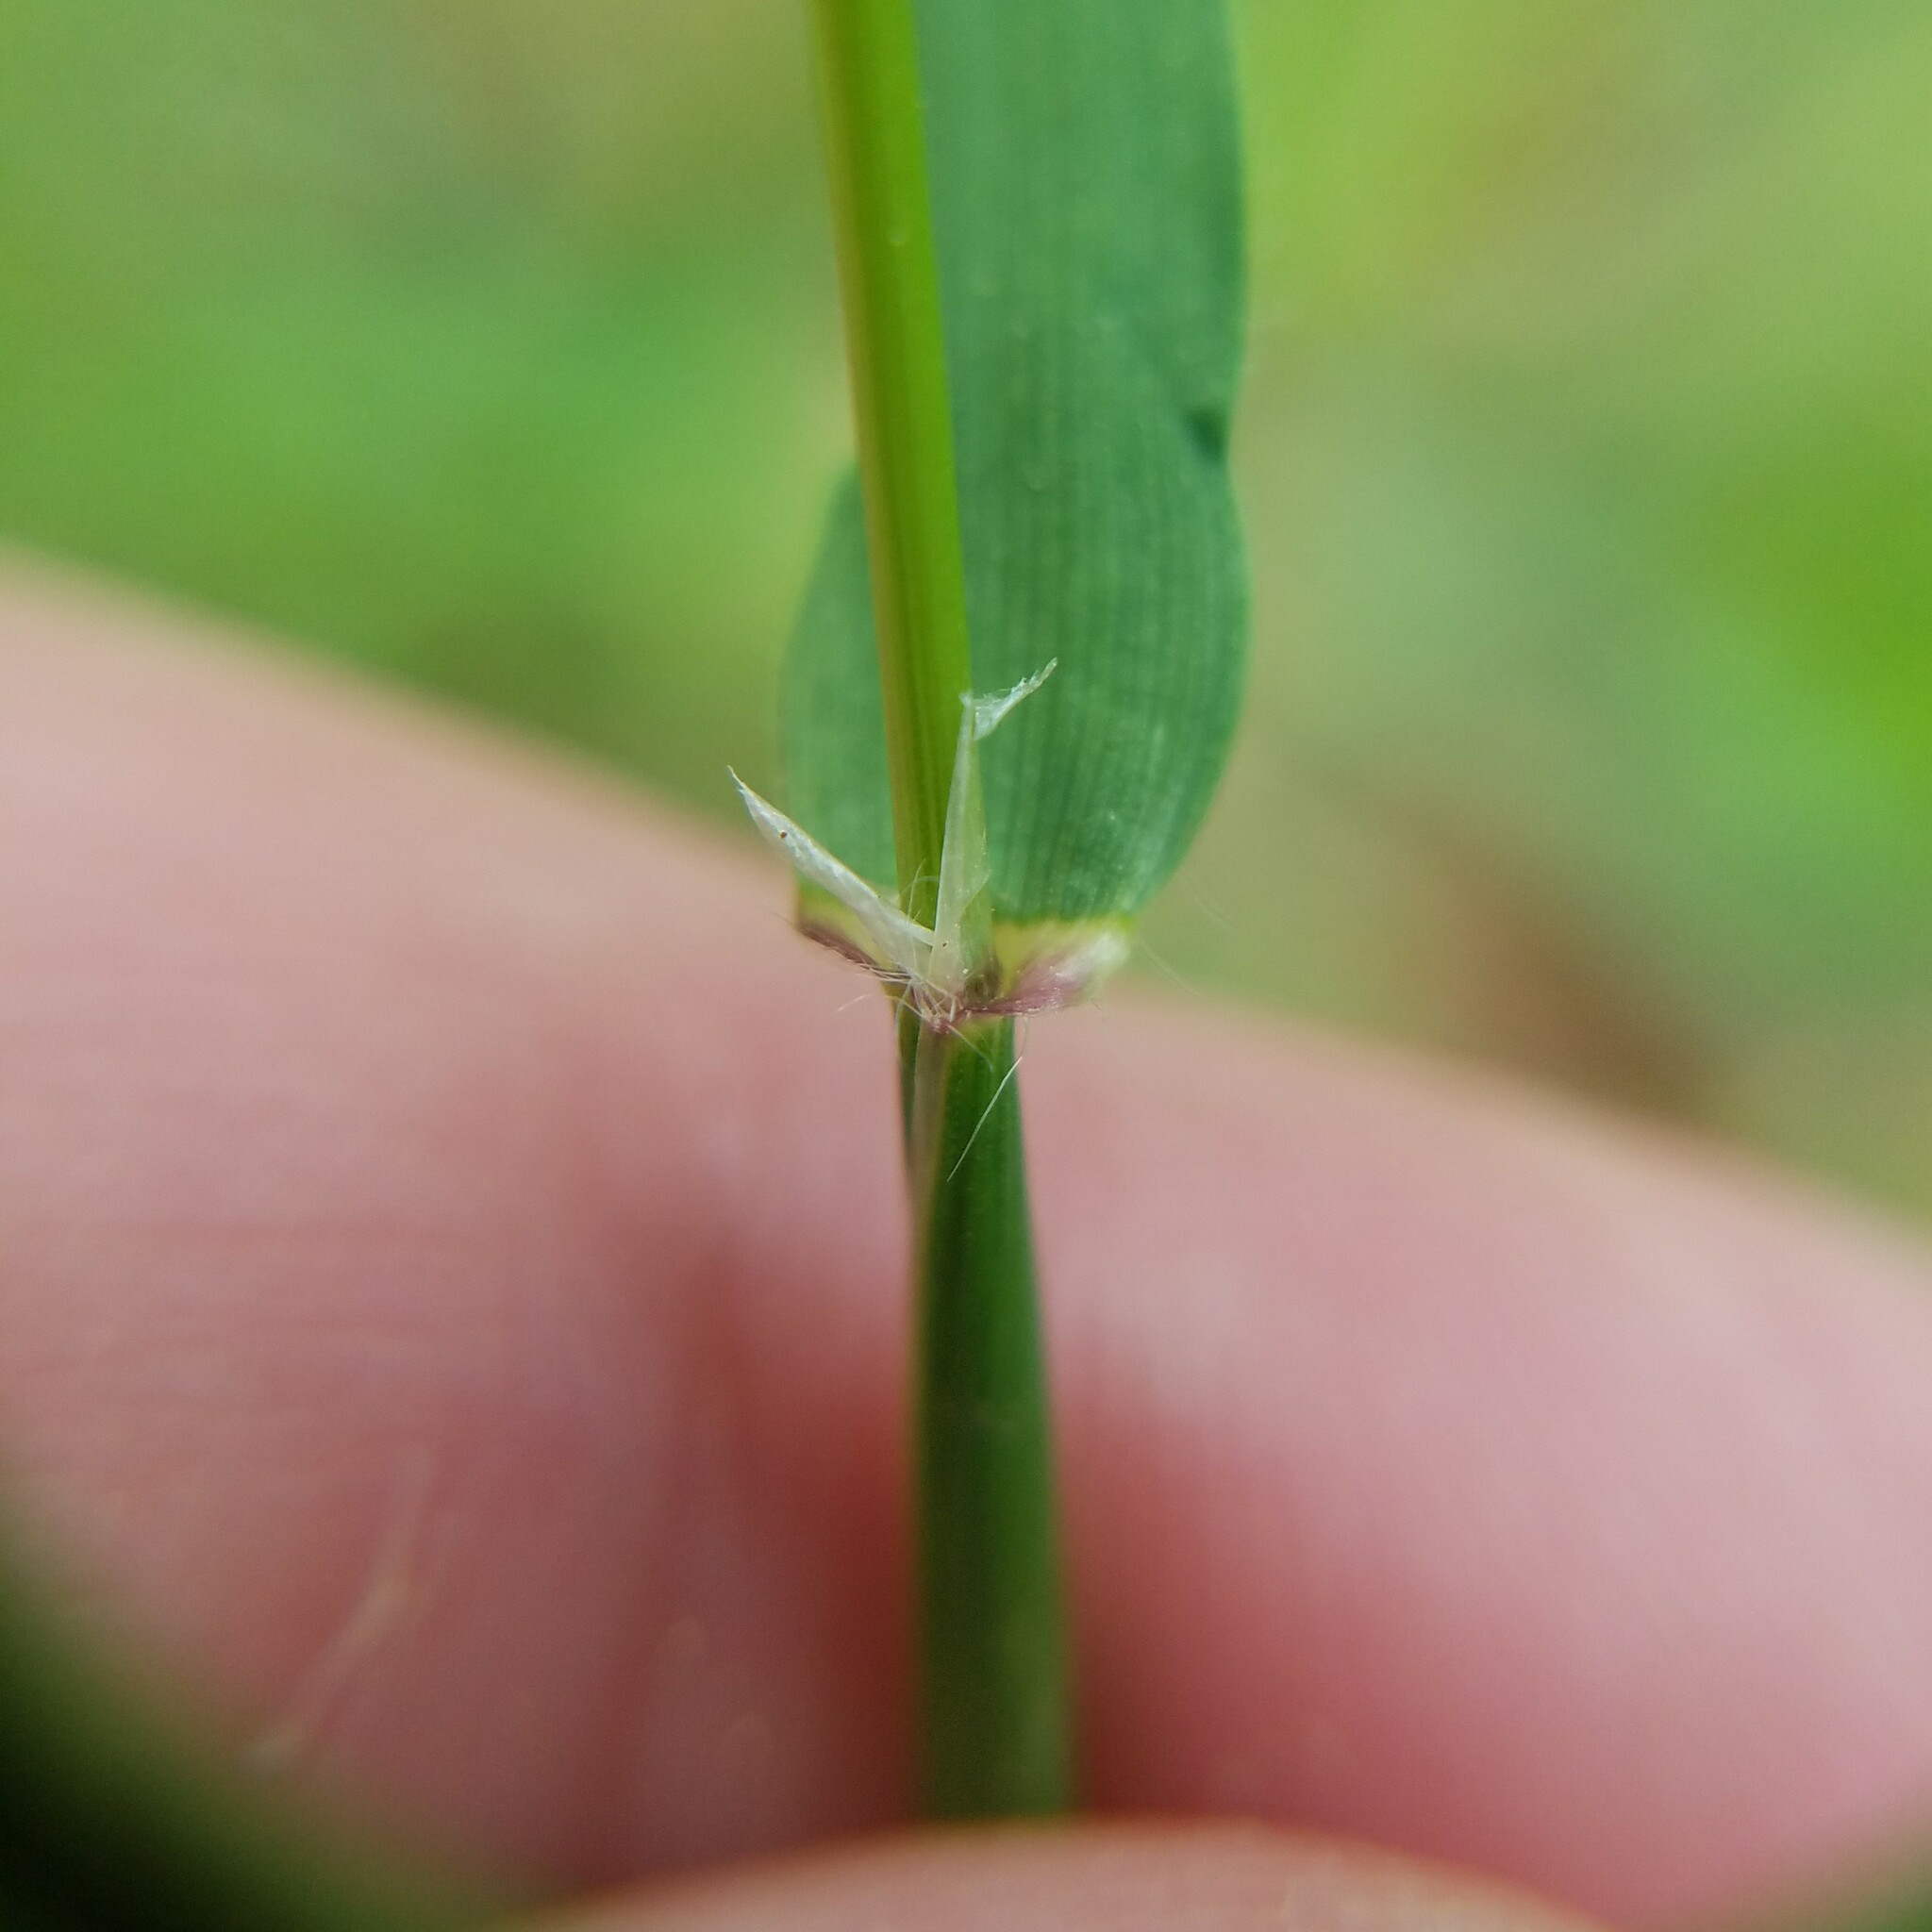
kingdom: Plantae
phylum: Tracheophyta
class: Liliopsida
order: Poales
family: Poaceae
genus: Anthoxanthum
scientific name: Anthoxanthum odoratum
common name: Sweet vernalgrass
